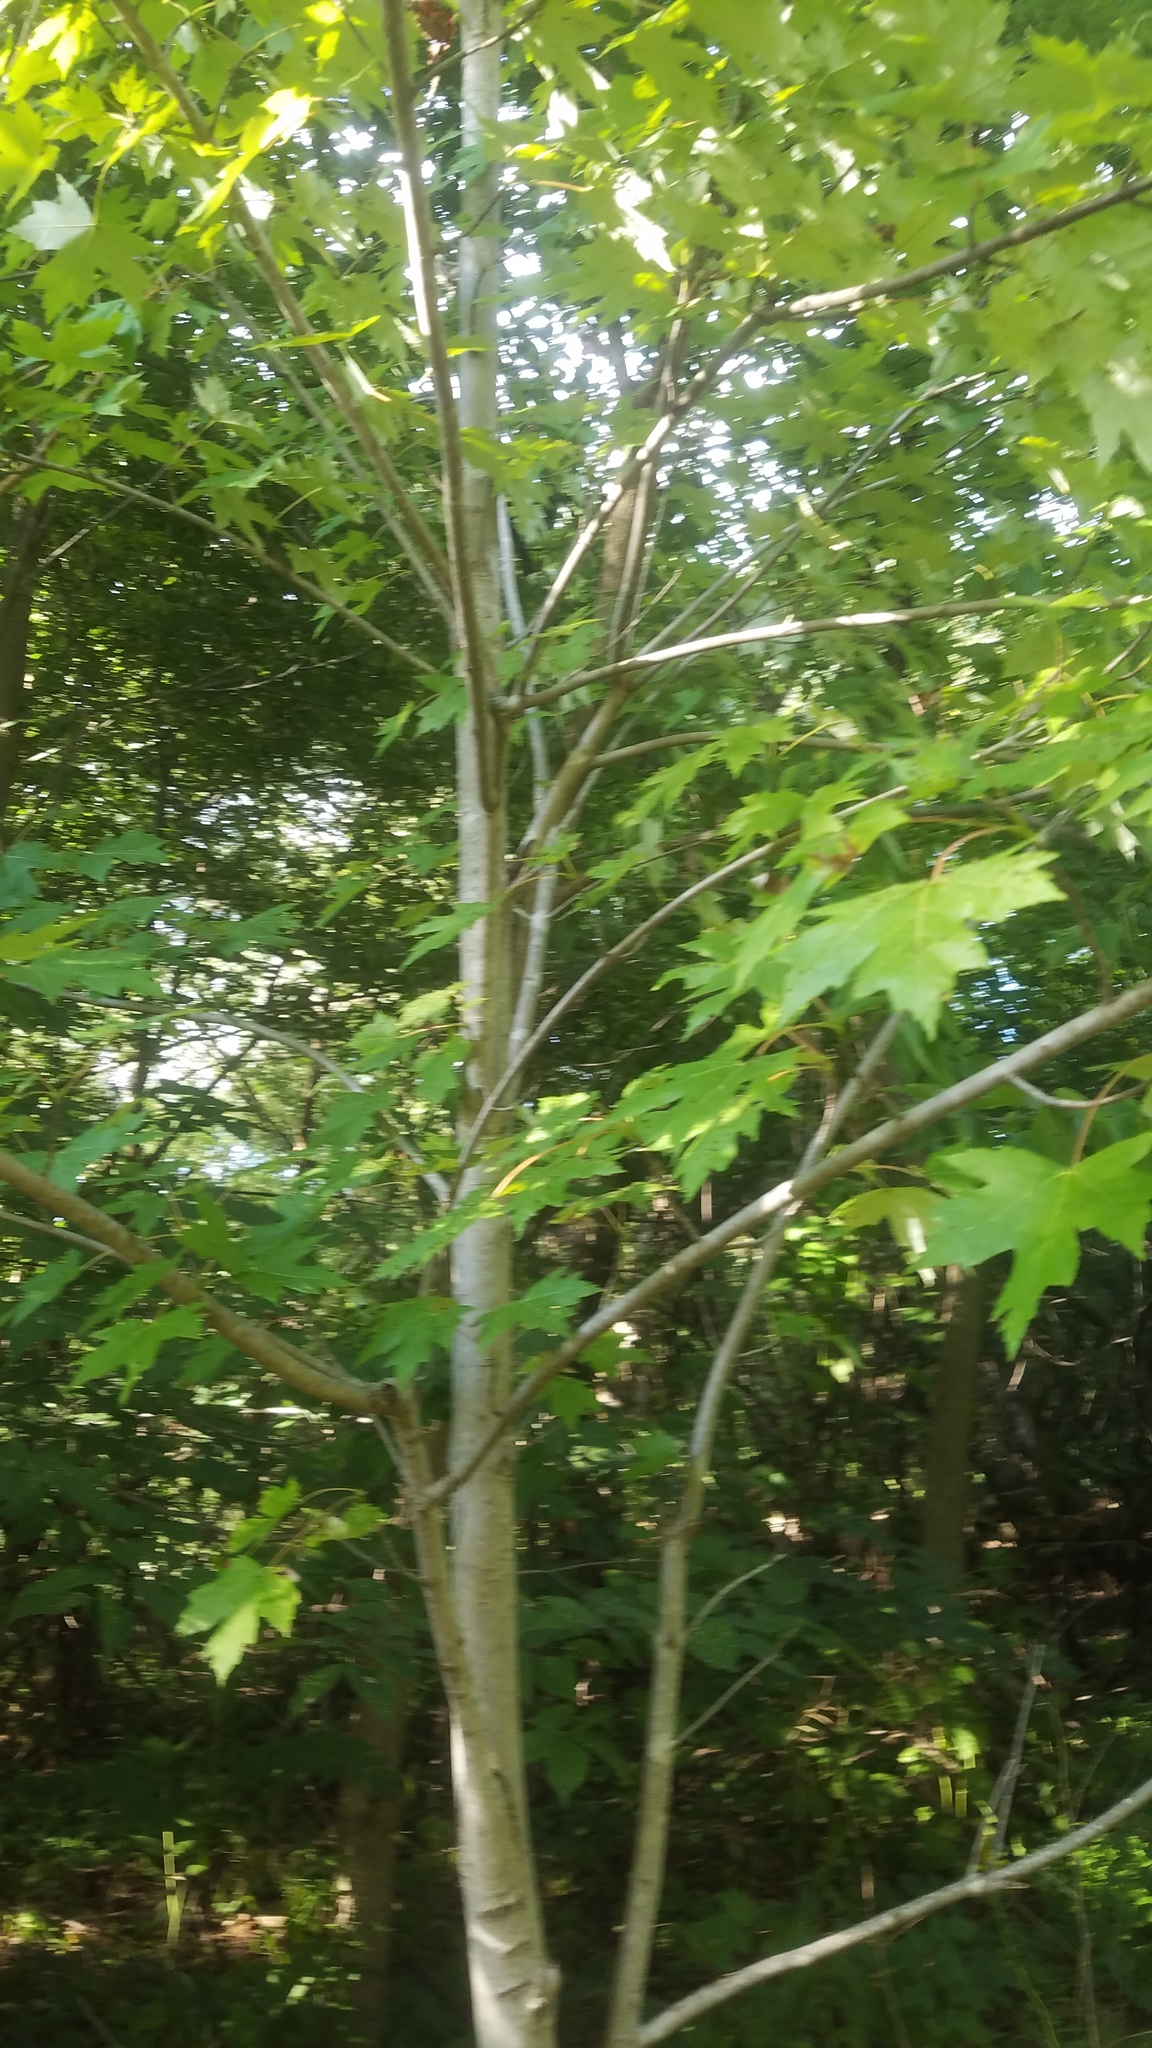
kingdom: Animalia
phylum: Arthropoda
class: Arachnida
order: Trombidiformes
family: Eriophyidae
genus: Vasates
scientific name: Vasates quadripedes
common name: Maple bladder gall mite
